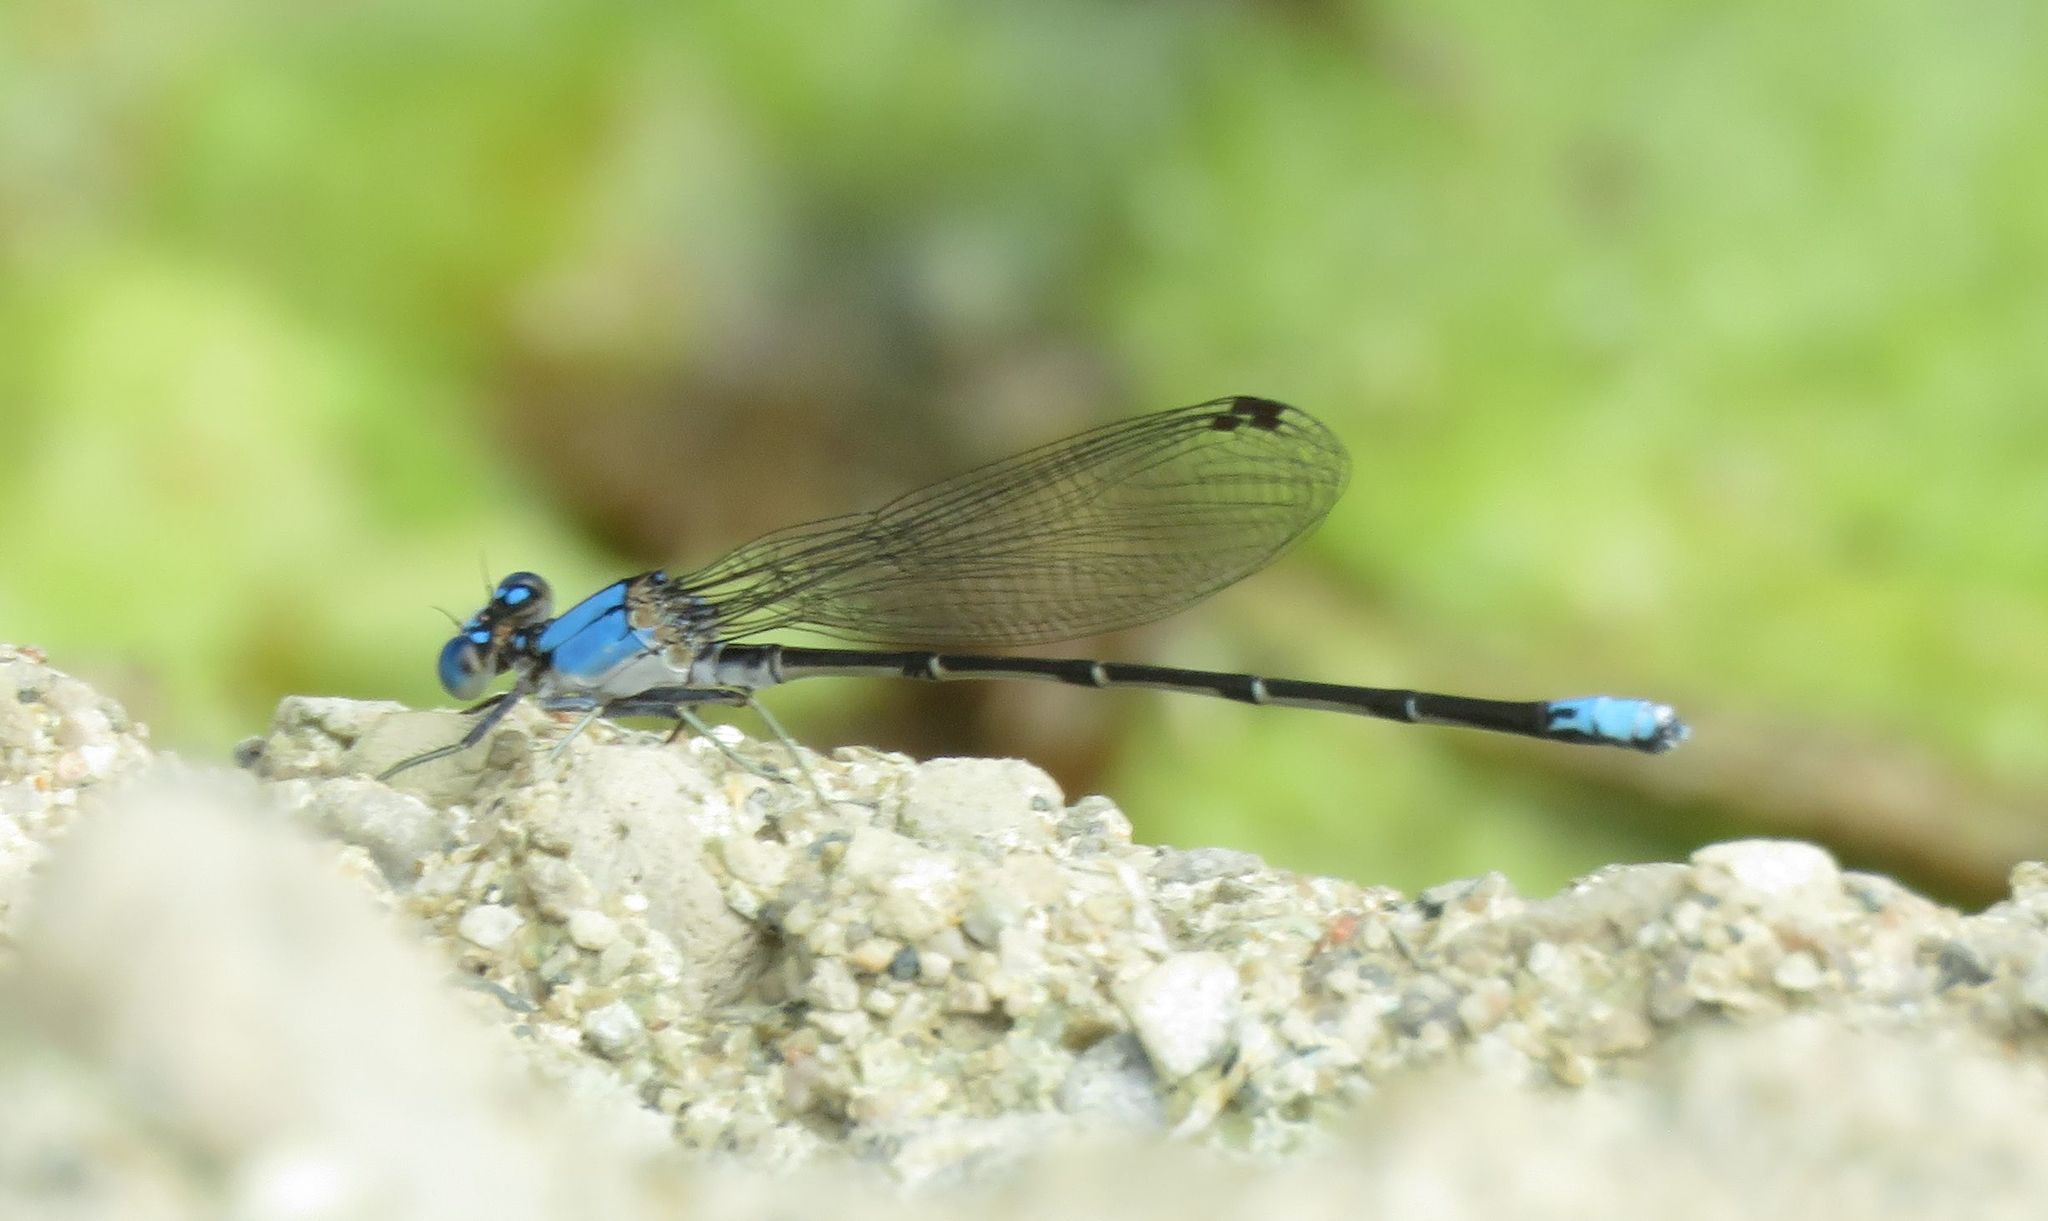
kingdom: Animalia
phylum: Arthropoda
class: Insecta
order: Odonata
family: Coenagrionidae
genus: Argia
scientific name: Argia apicalis
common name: Blue-fronted dancer
